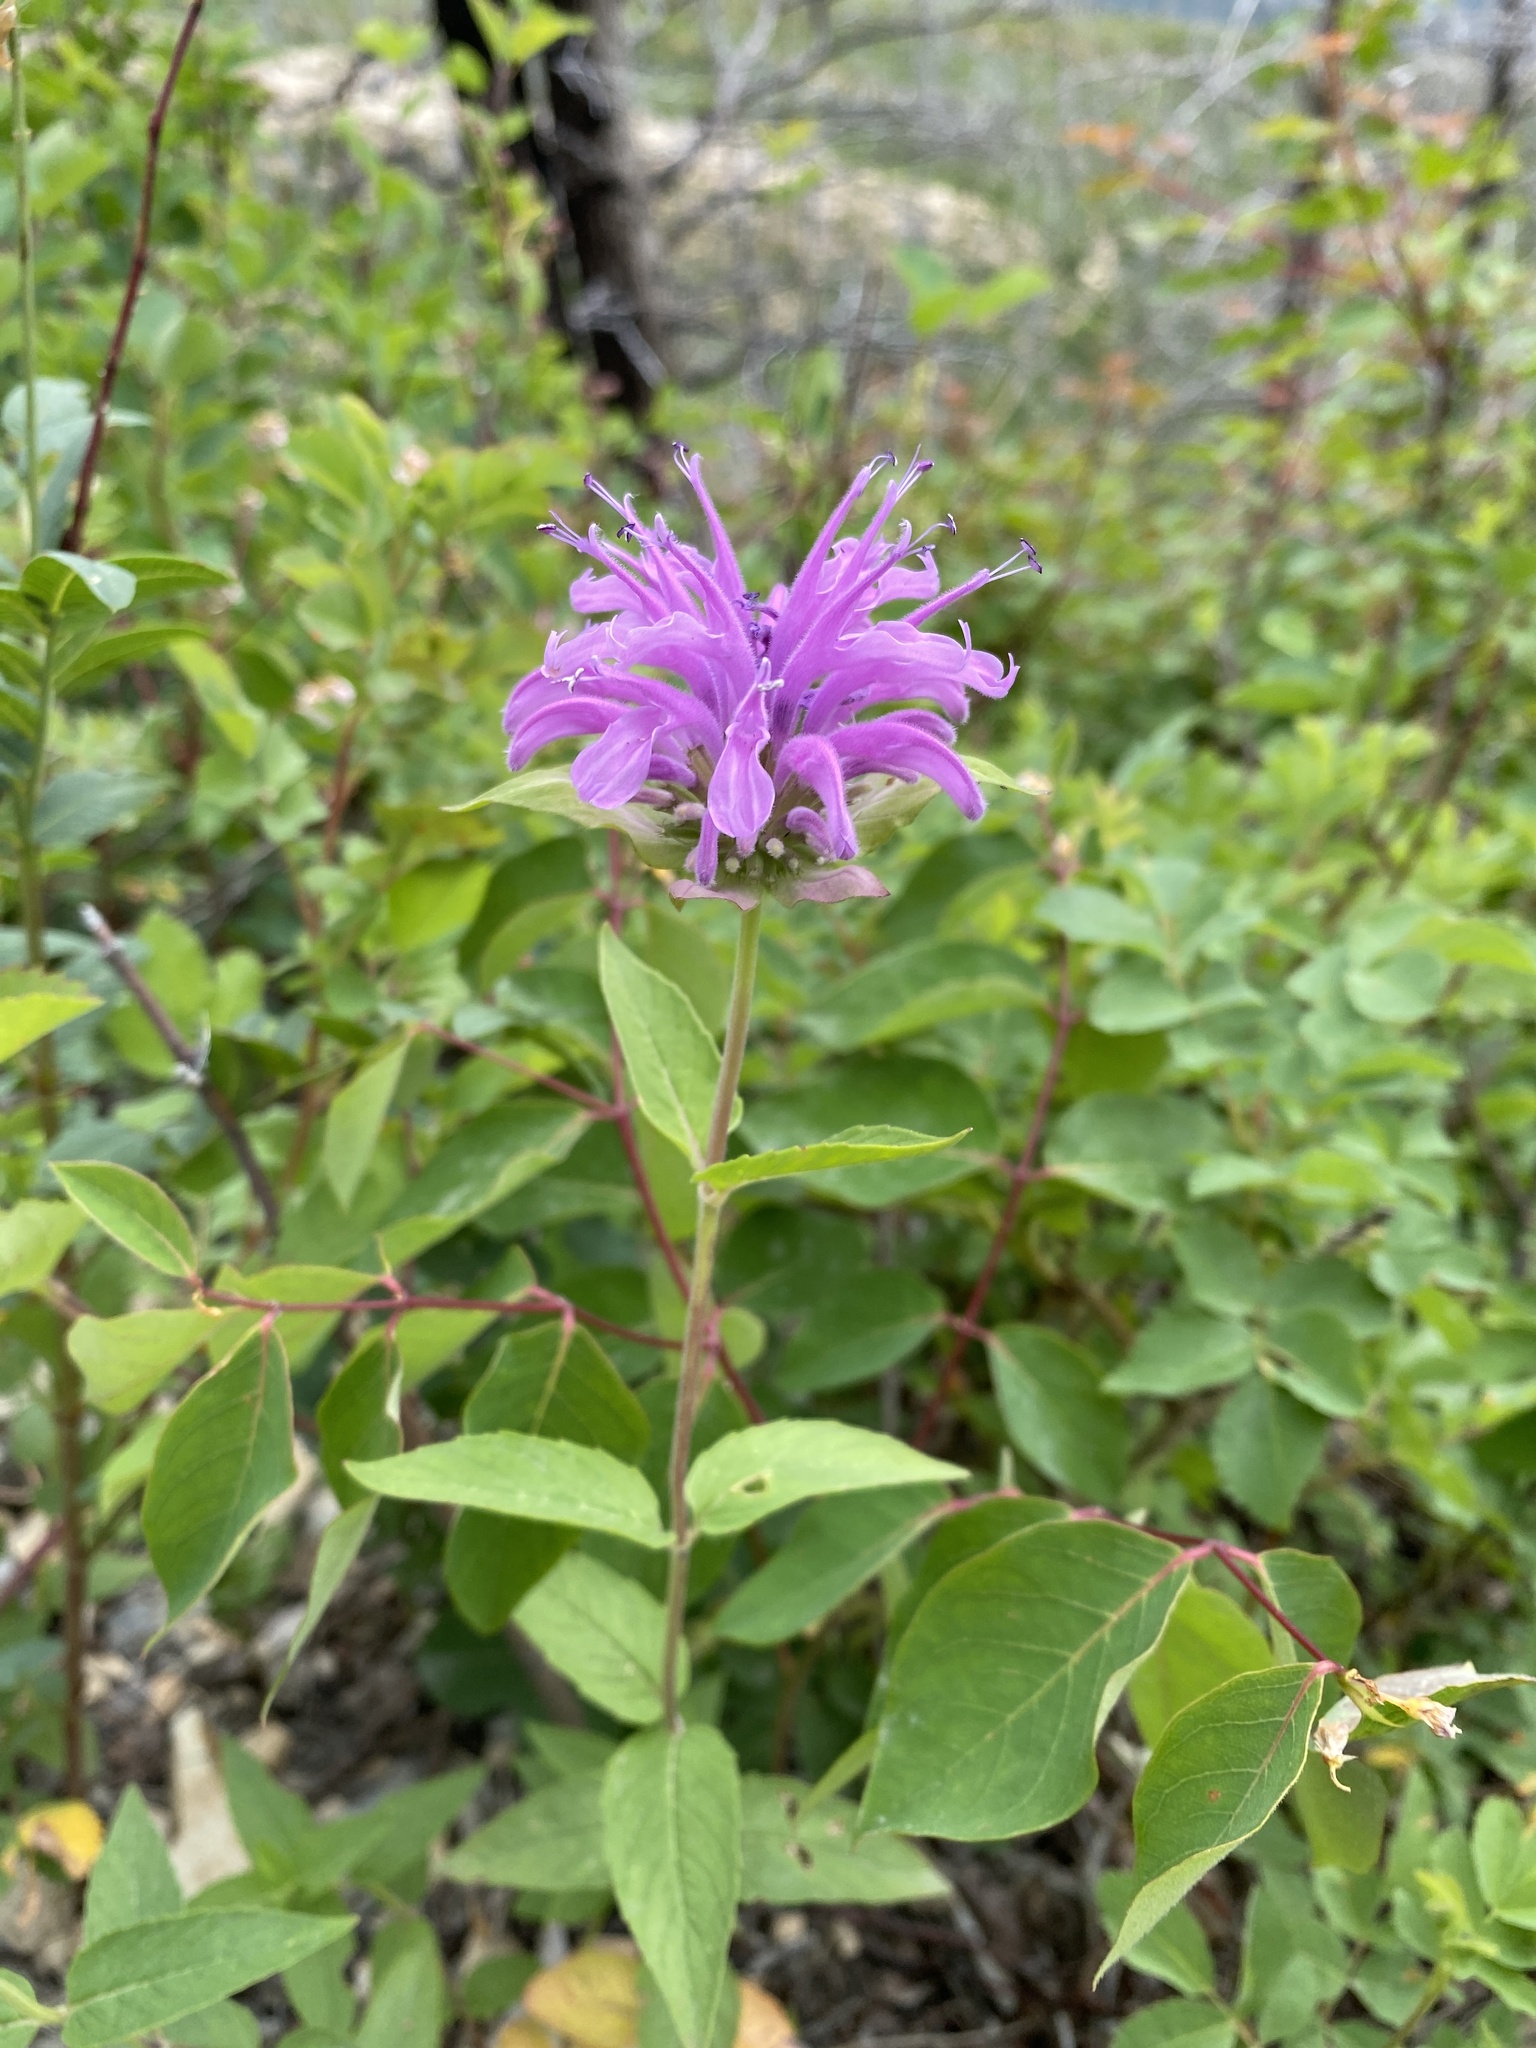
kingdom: Plantae
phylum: Tracheophyta
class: Magnoliopsida
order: Lamiales
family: Lamiaceae
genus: Monarda
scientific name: Monarda fistulosa
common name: Purple beebalm
